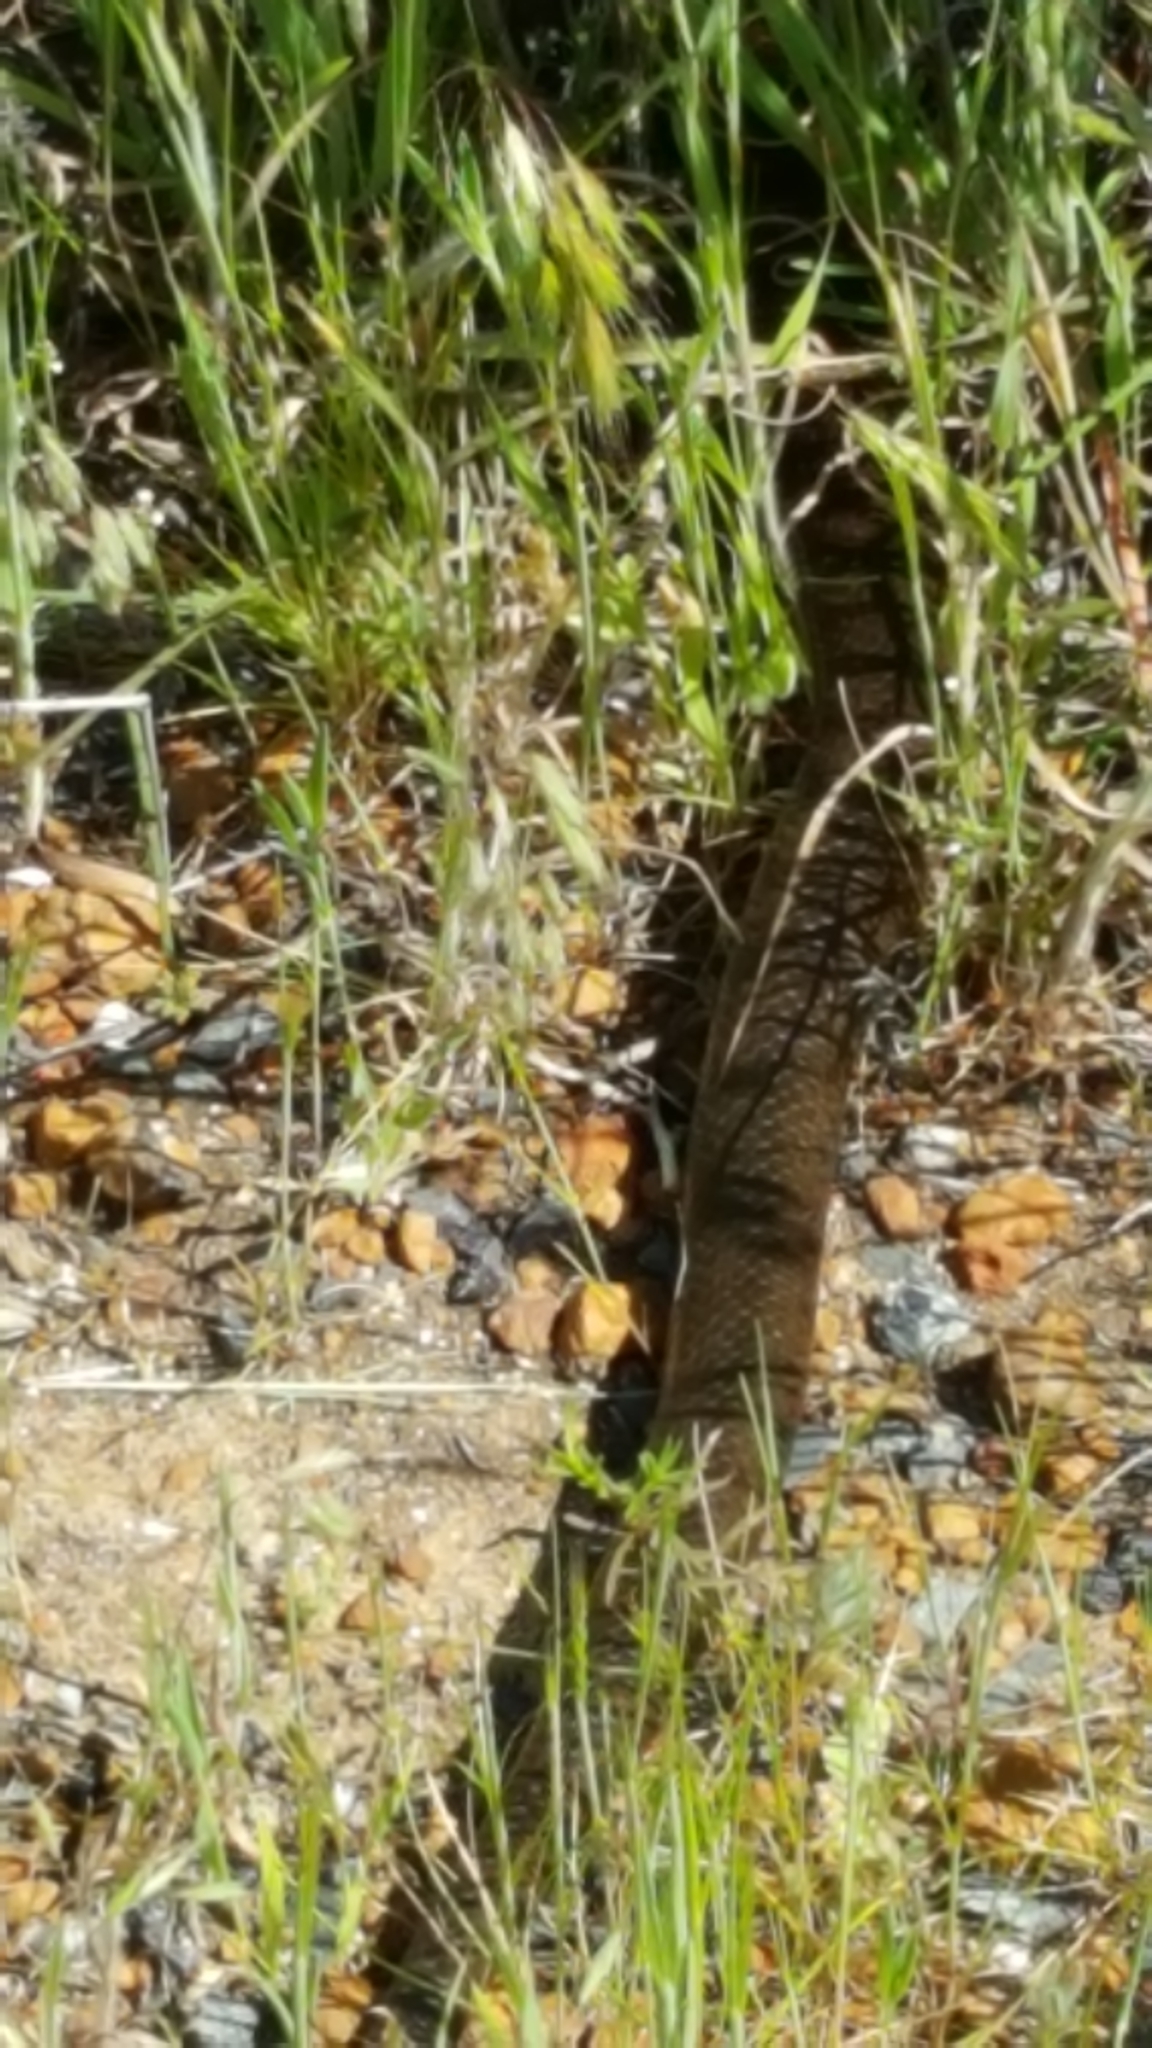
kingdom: Animalia
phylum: Chordata
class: Squamata
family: Pseudaspididae
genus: Pseudaspis
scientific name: Pseudaspis cana
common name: Mole snake
